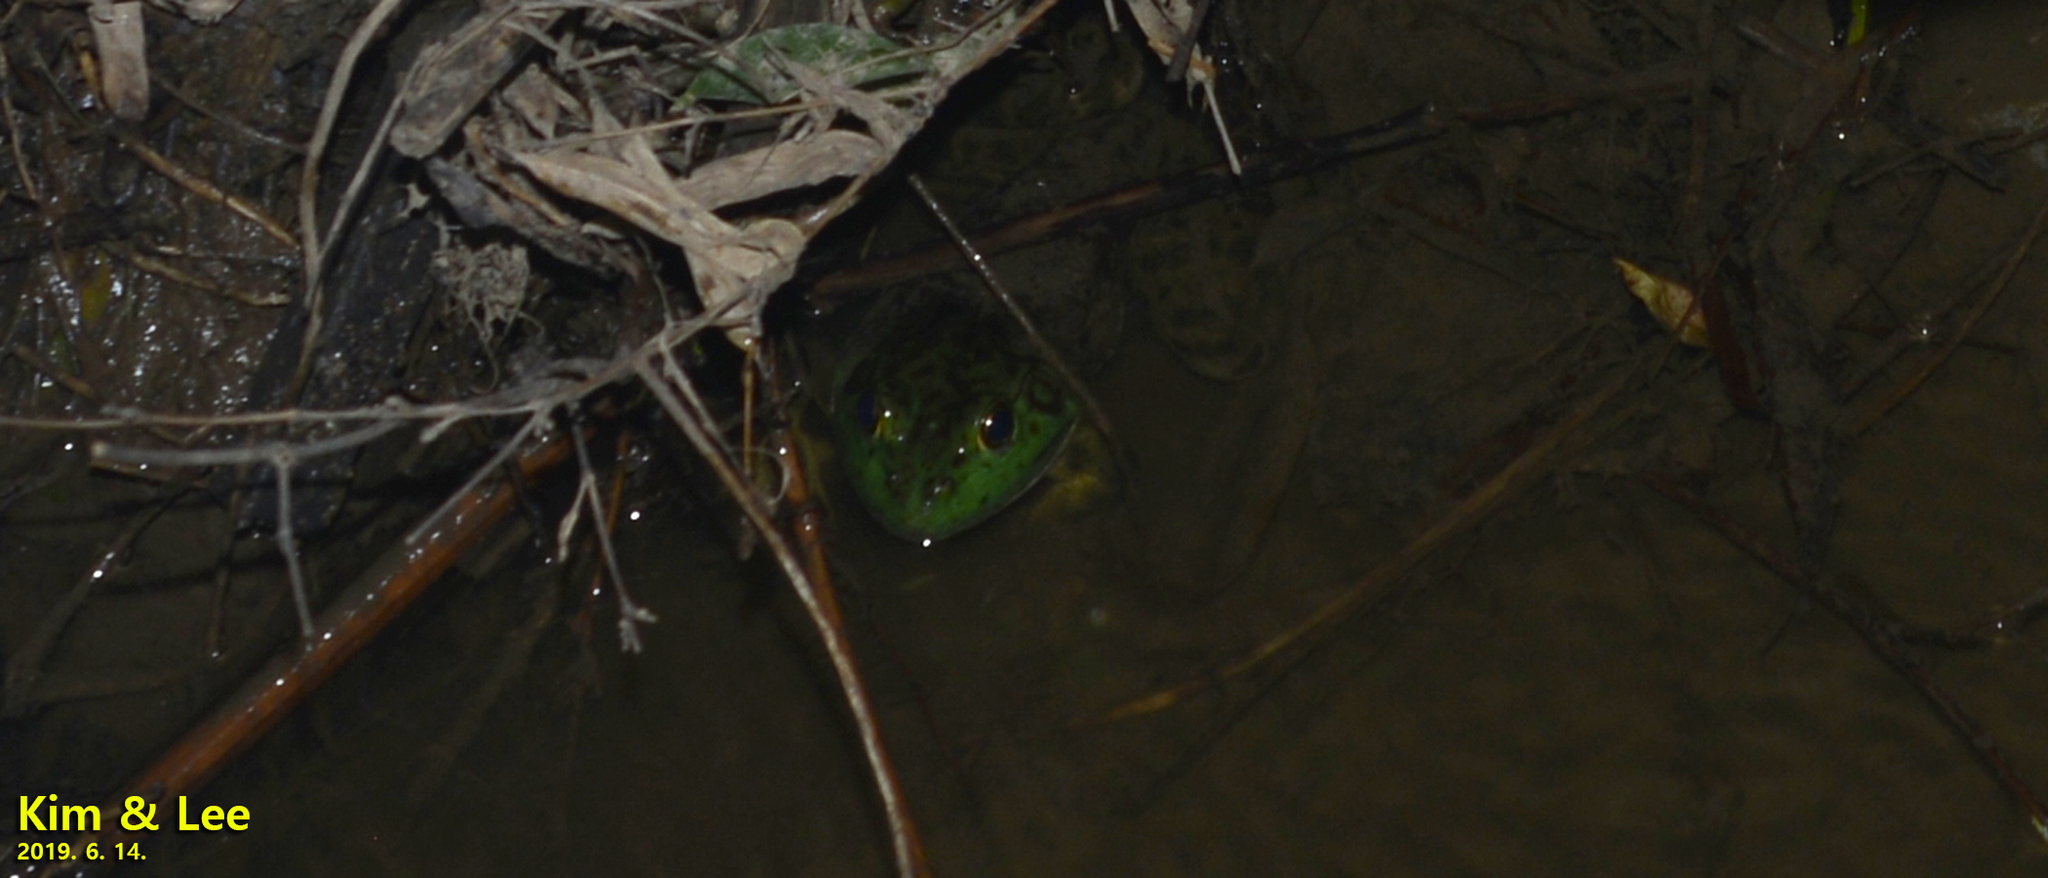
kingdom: Animalia
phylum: Chordata
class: Amphibia
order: Anura
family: Ranidae
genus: Lithobates
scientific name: Lithobates catesbeianus
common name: American bullfrog
